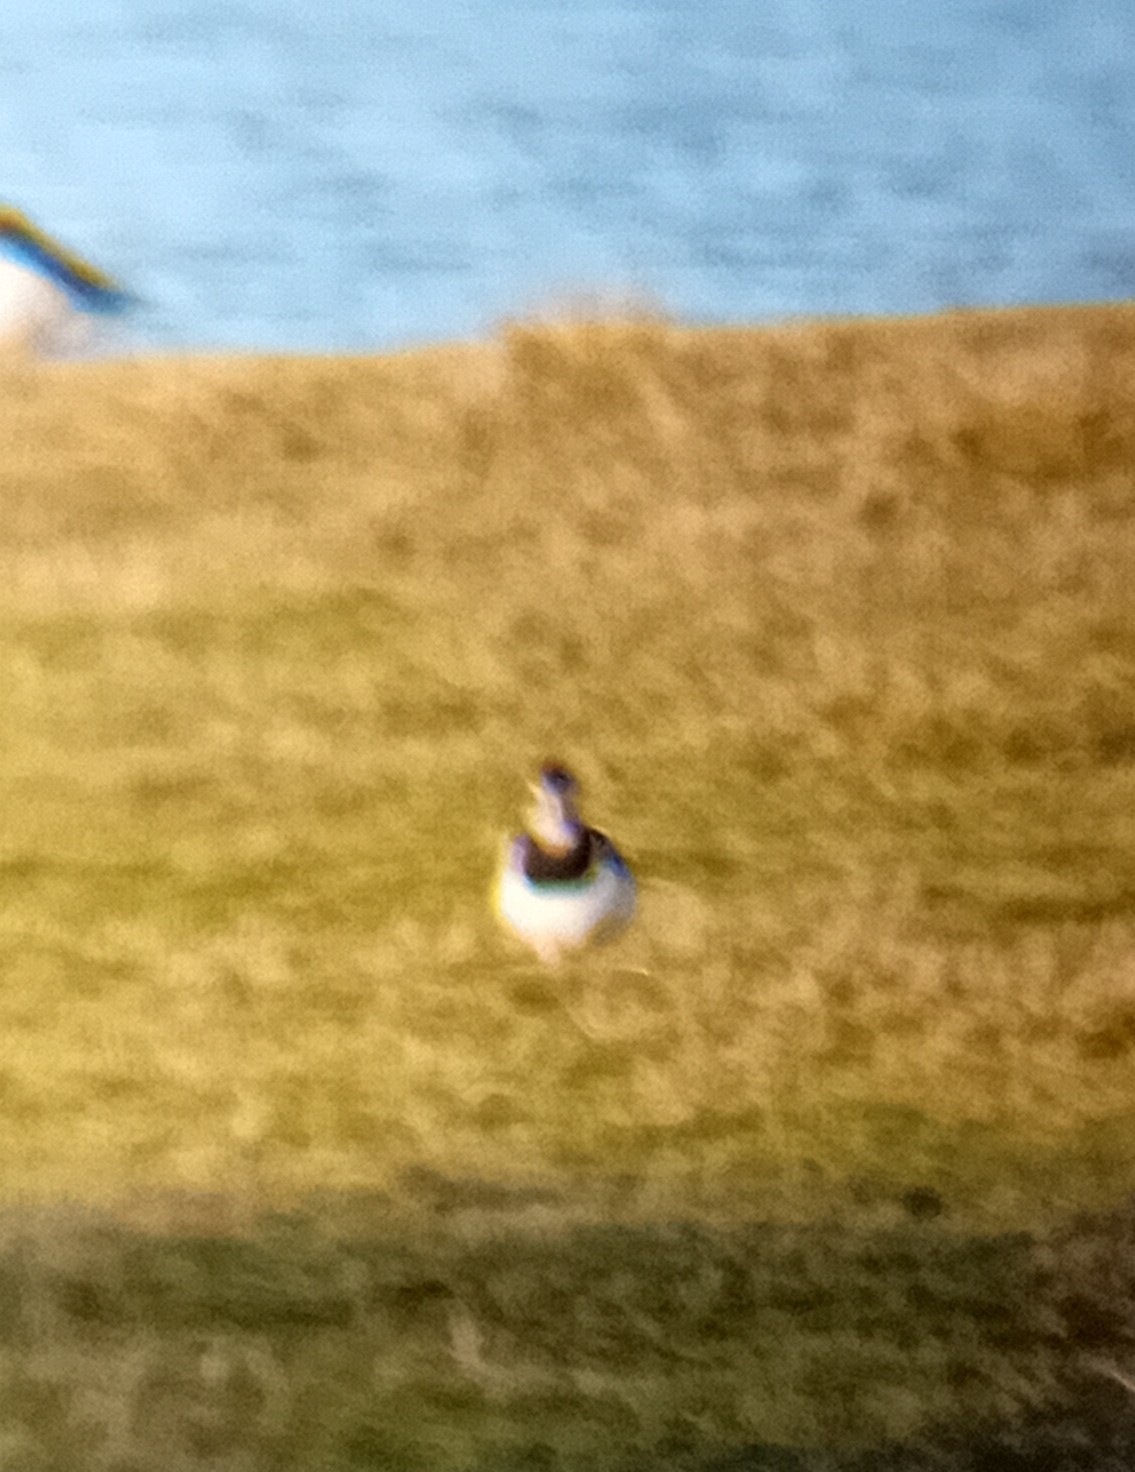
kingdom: Animalia
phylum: Chordata
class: Aves
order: Charadriiformes
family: Charadriidae
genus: Vanellus
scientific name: Vanellus vanellus
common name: Northern lapwing
